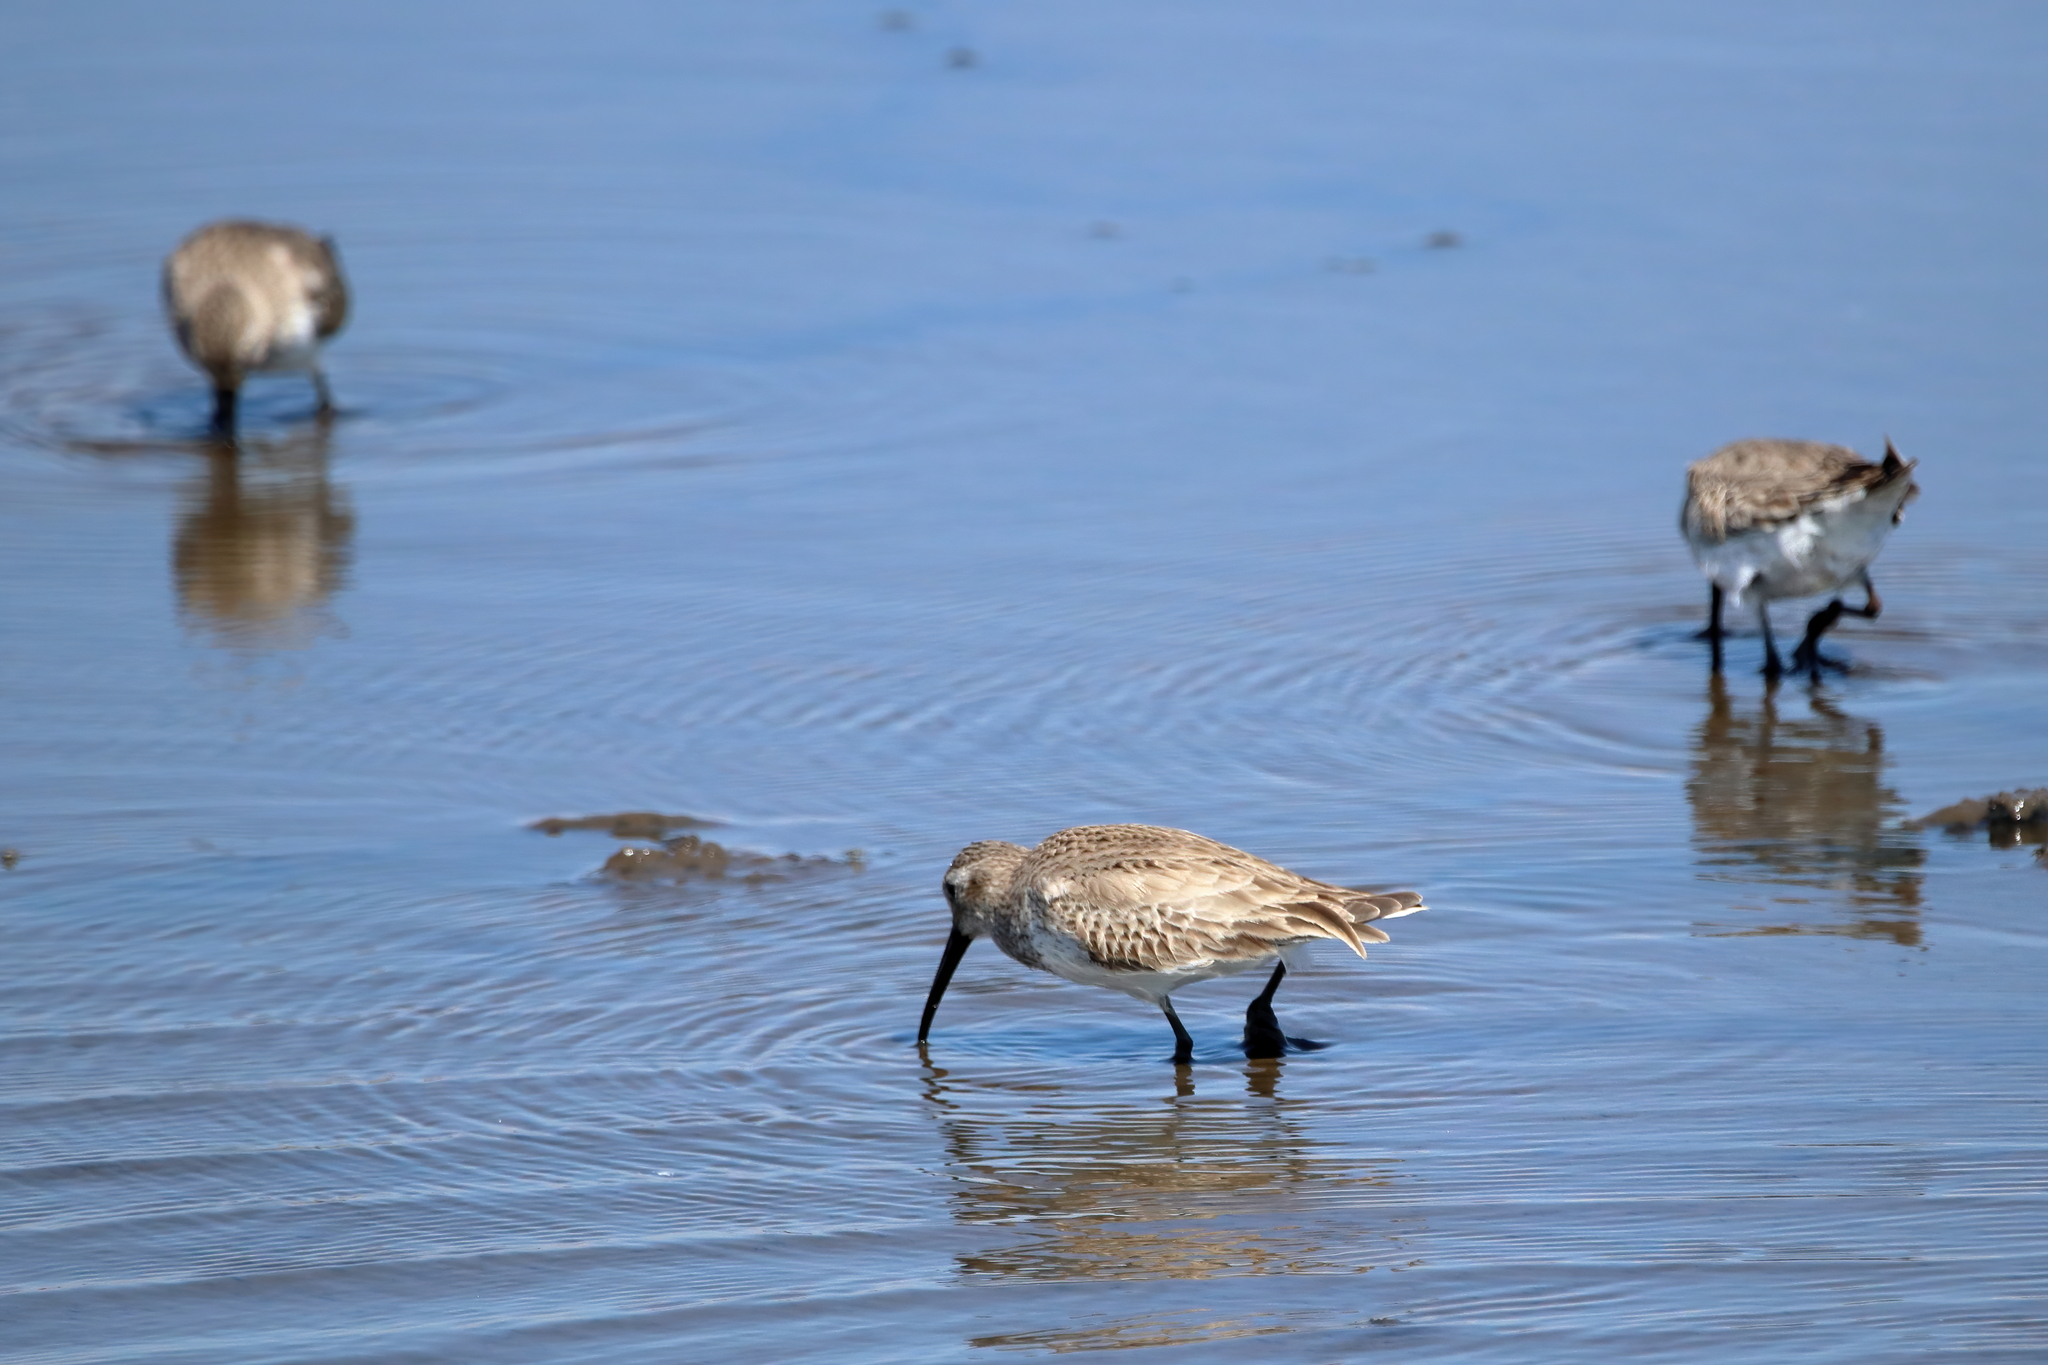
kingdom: Animalia
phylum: Chordata
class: Aves
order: Charadriiformes
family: Scolopacidae
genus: Calidris
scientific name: Calidris alpina
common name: Dunlin
